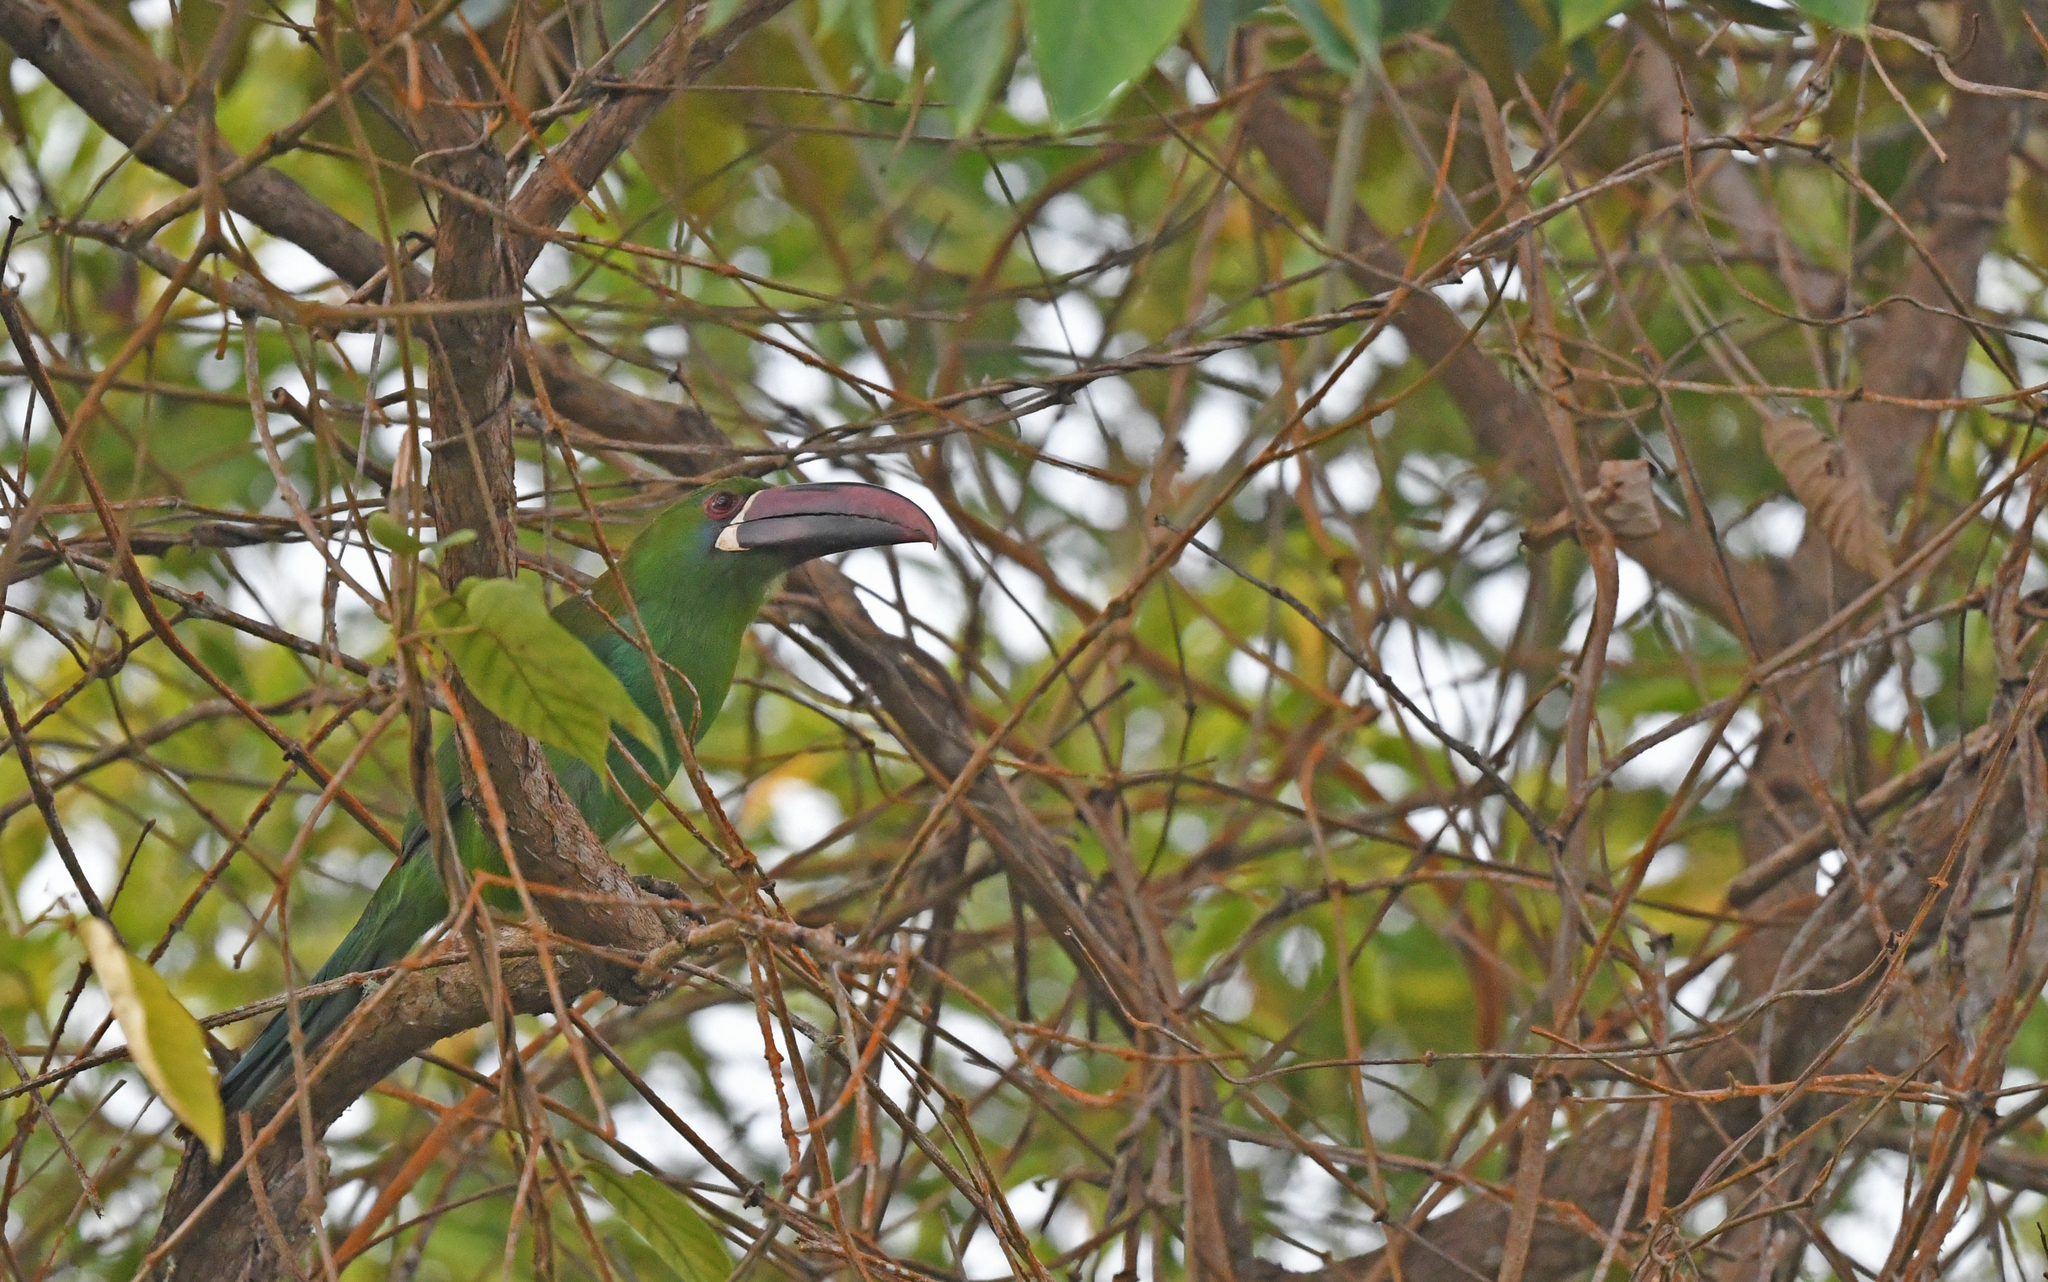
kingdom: Animalia
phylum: Chordata
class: Aves
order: Piciformes
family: Ramphastidae
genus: Aulacorhynchus
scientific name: Aulacorhynchus haematopygus
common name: Crimson-rumped toucanet
